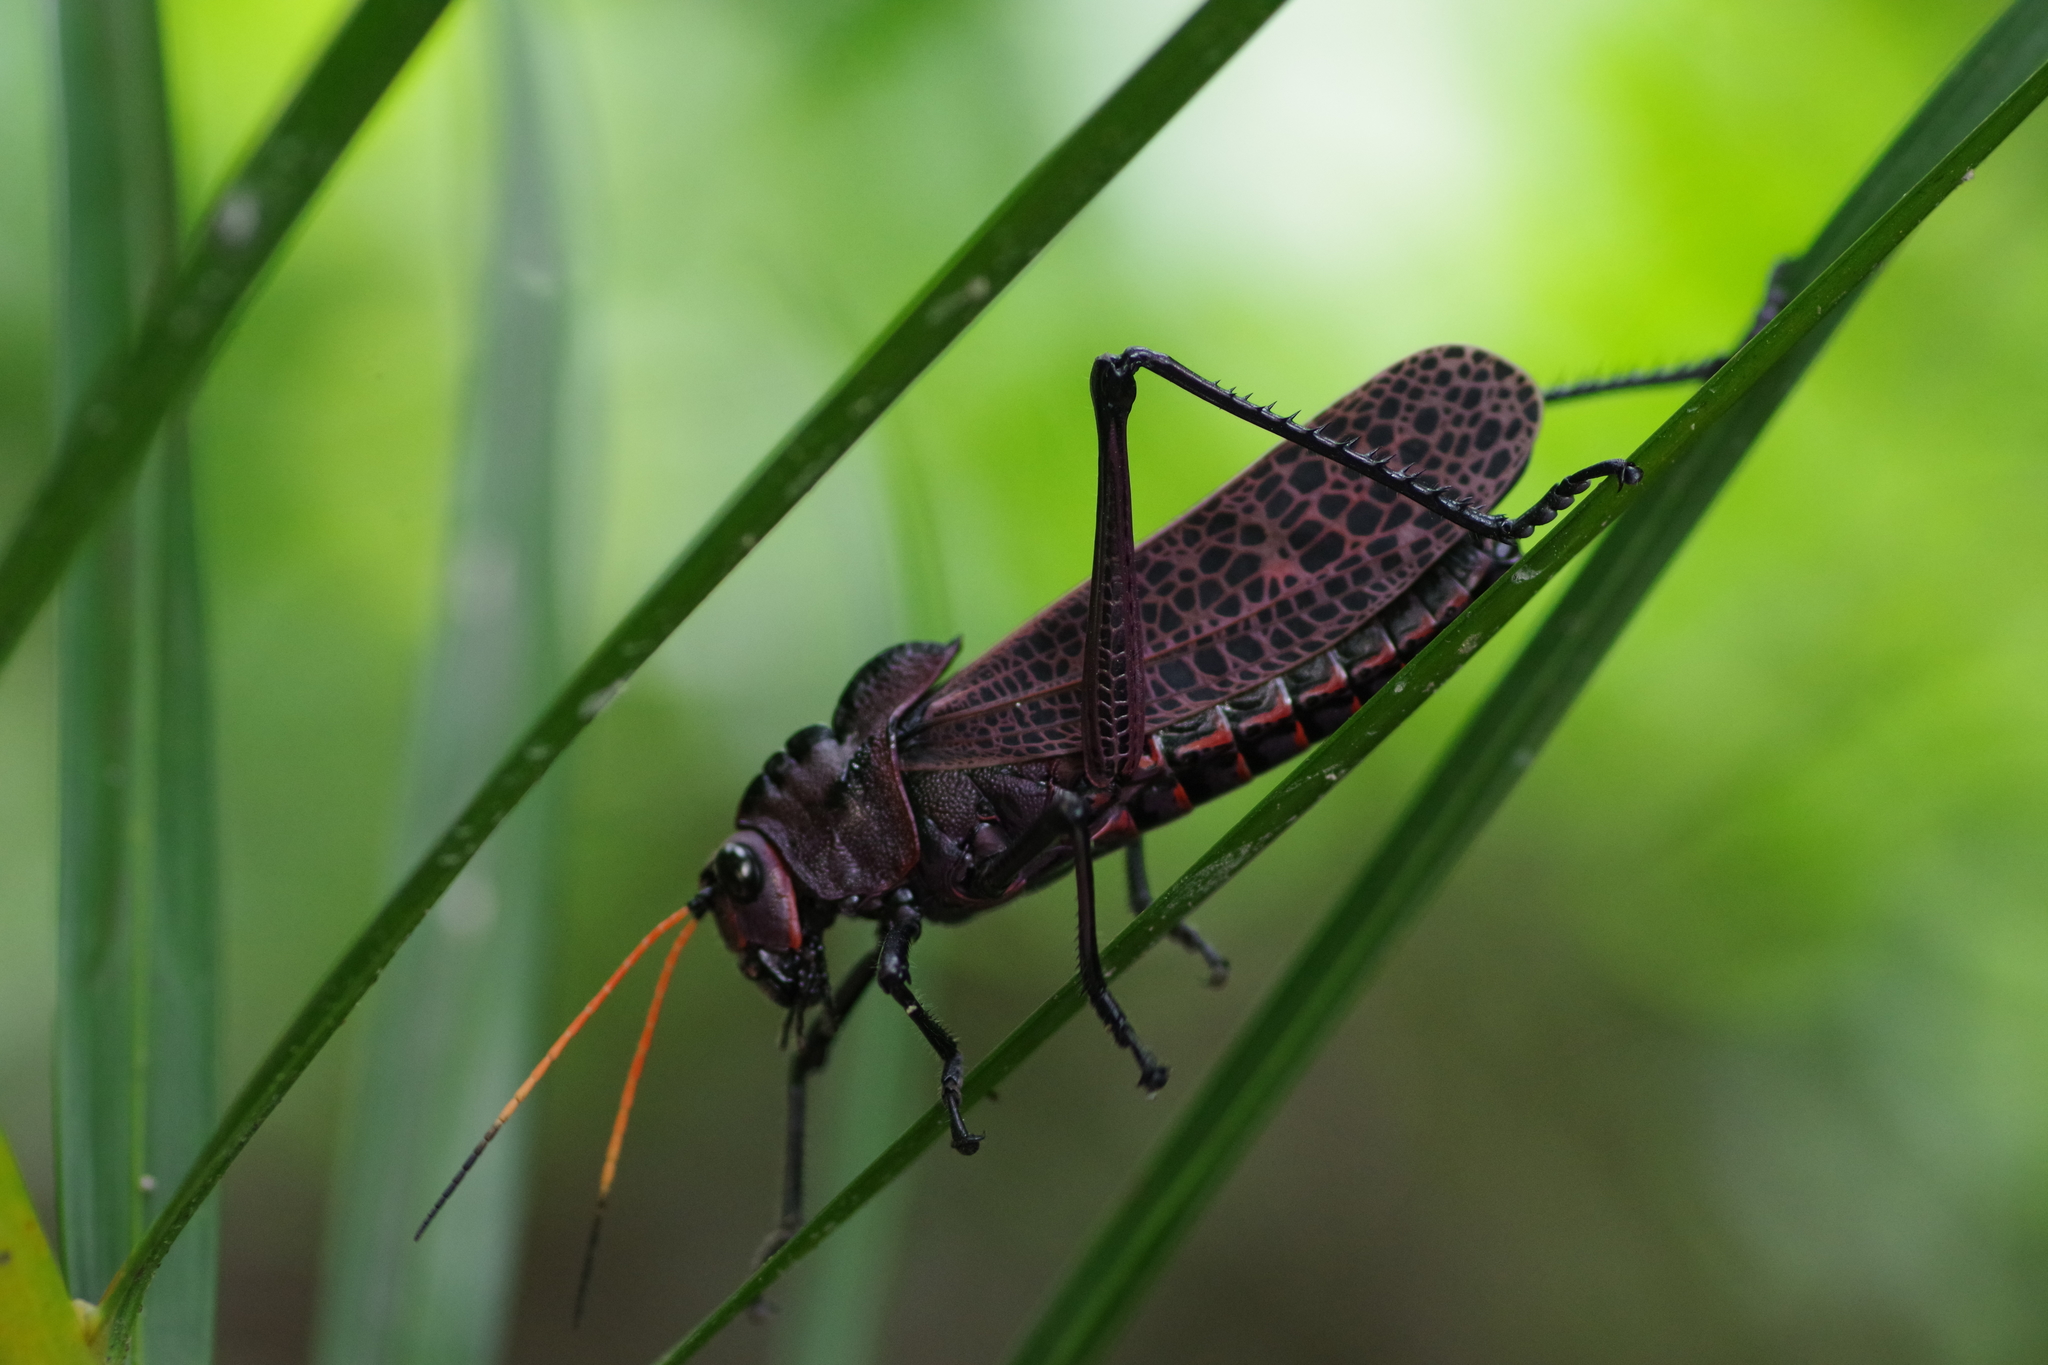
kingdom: Animalia
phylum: Arthropoda
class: Insecta
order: Orthoptera
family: Romaleidae
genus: Romalea
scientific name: Romalea
